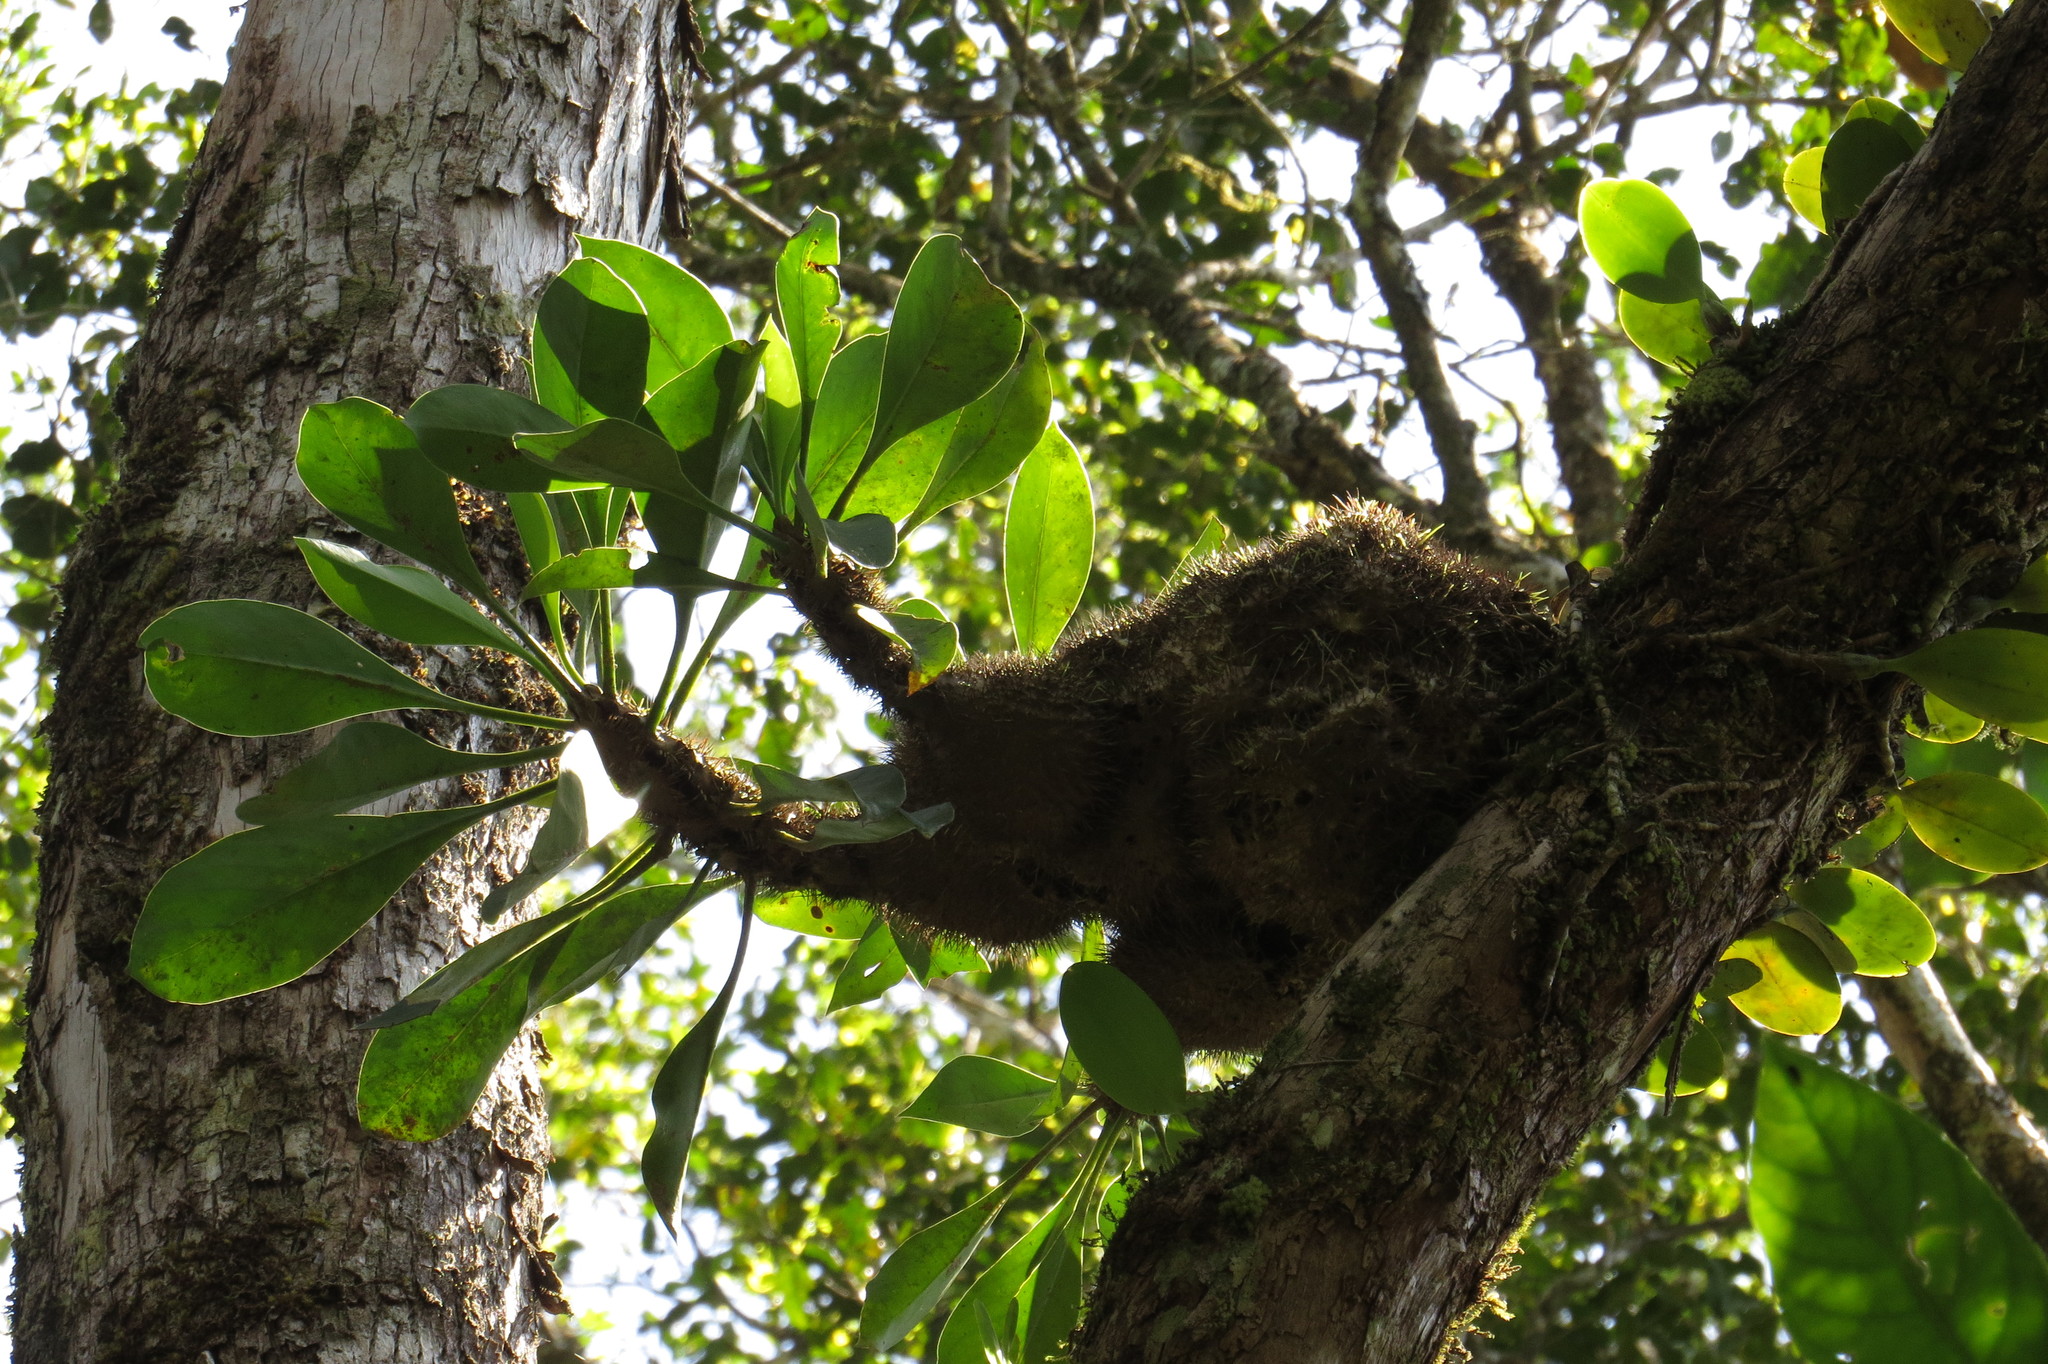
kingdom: Plantae
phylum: Tracheophyta
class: Magnoliopsida
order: Gentianales
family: Rubiaceae
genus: Myrmecodia
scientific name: Myrmecodia platytyrea
